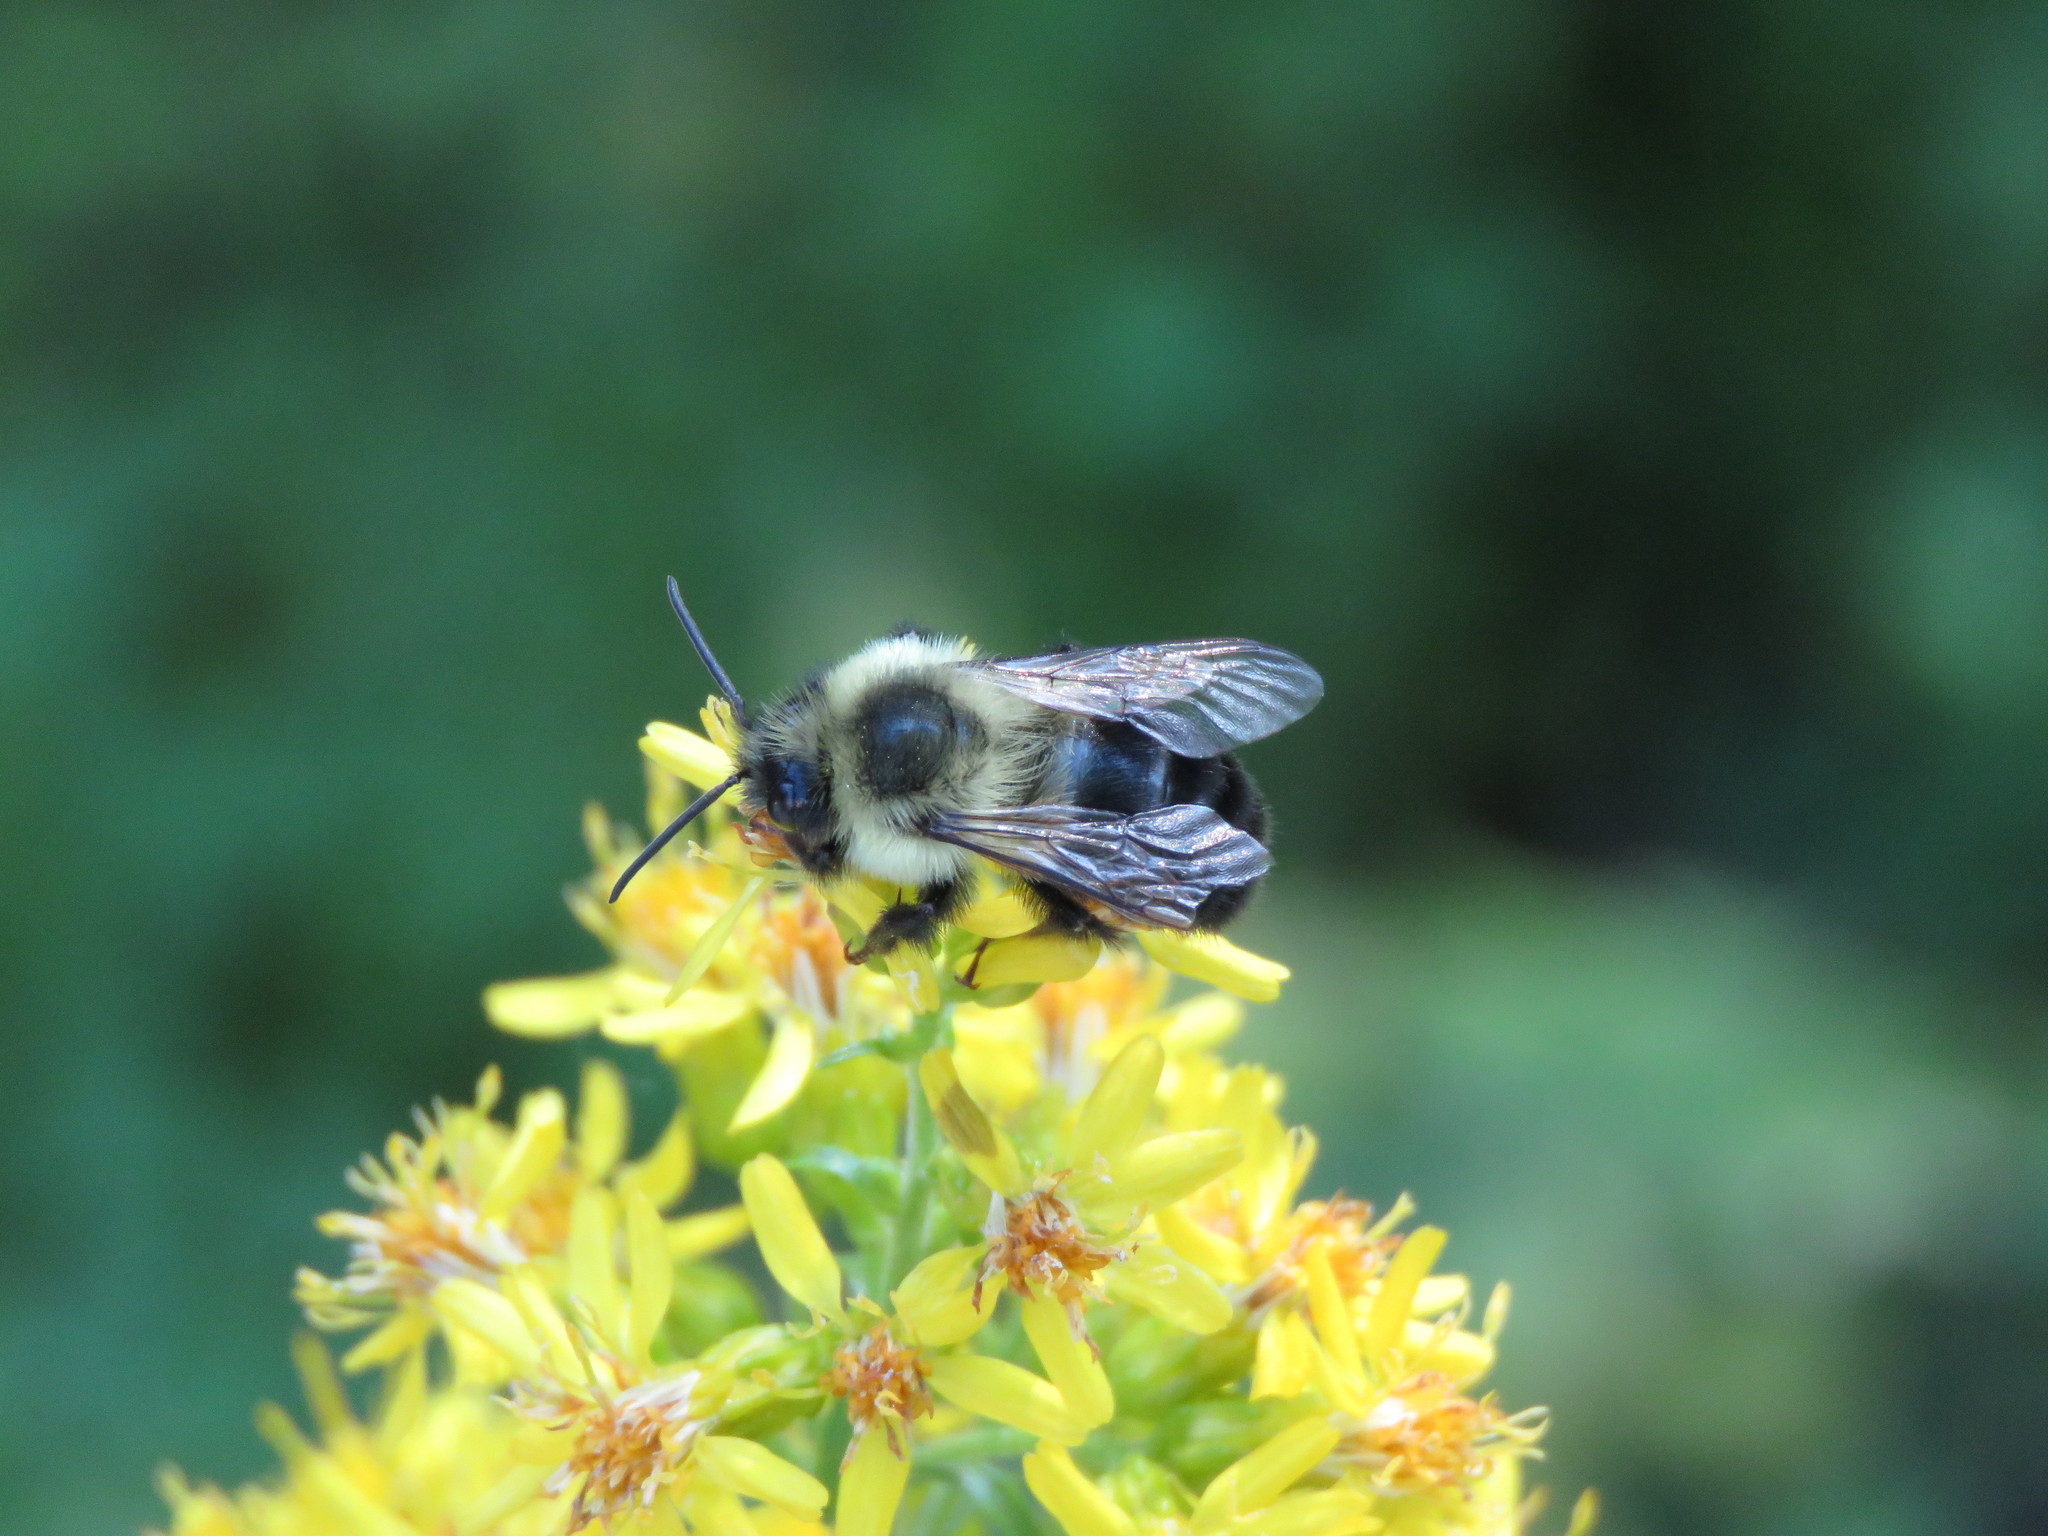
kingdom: Animalia
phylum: Arthropoda
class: Insecta
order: Hymenoptera
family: Apidae
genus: Bombus
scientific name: Bombus impatiens
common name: Common eastern bumble bee
